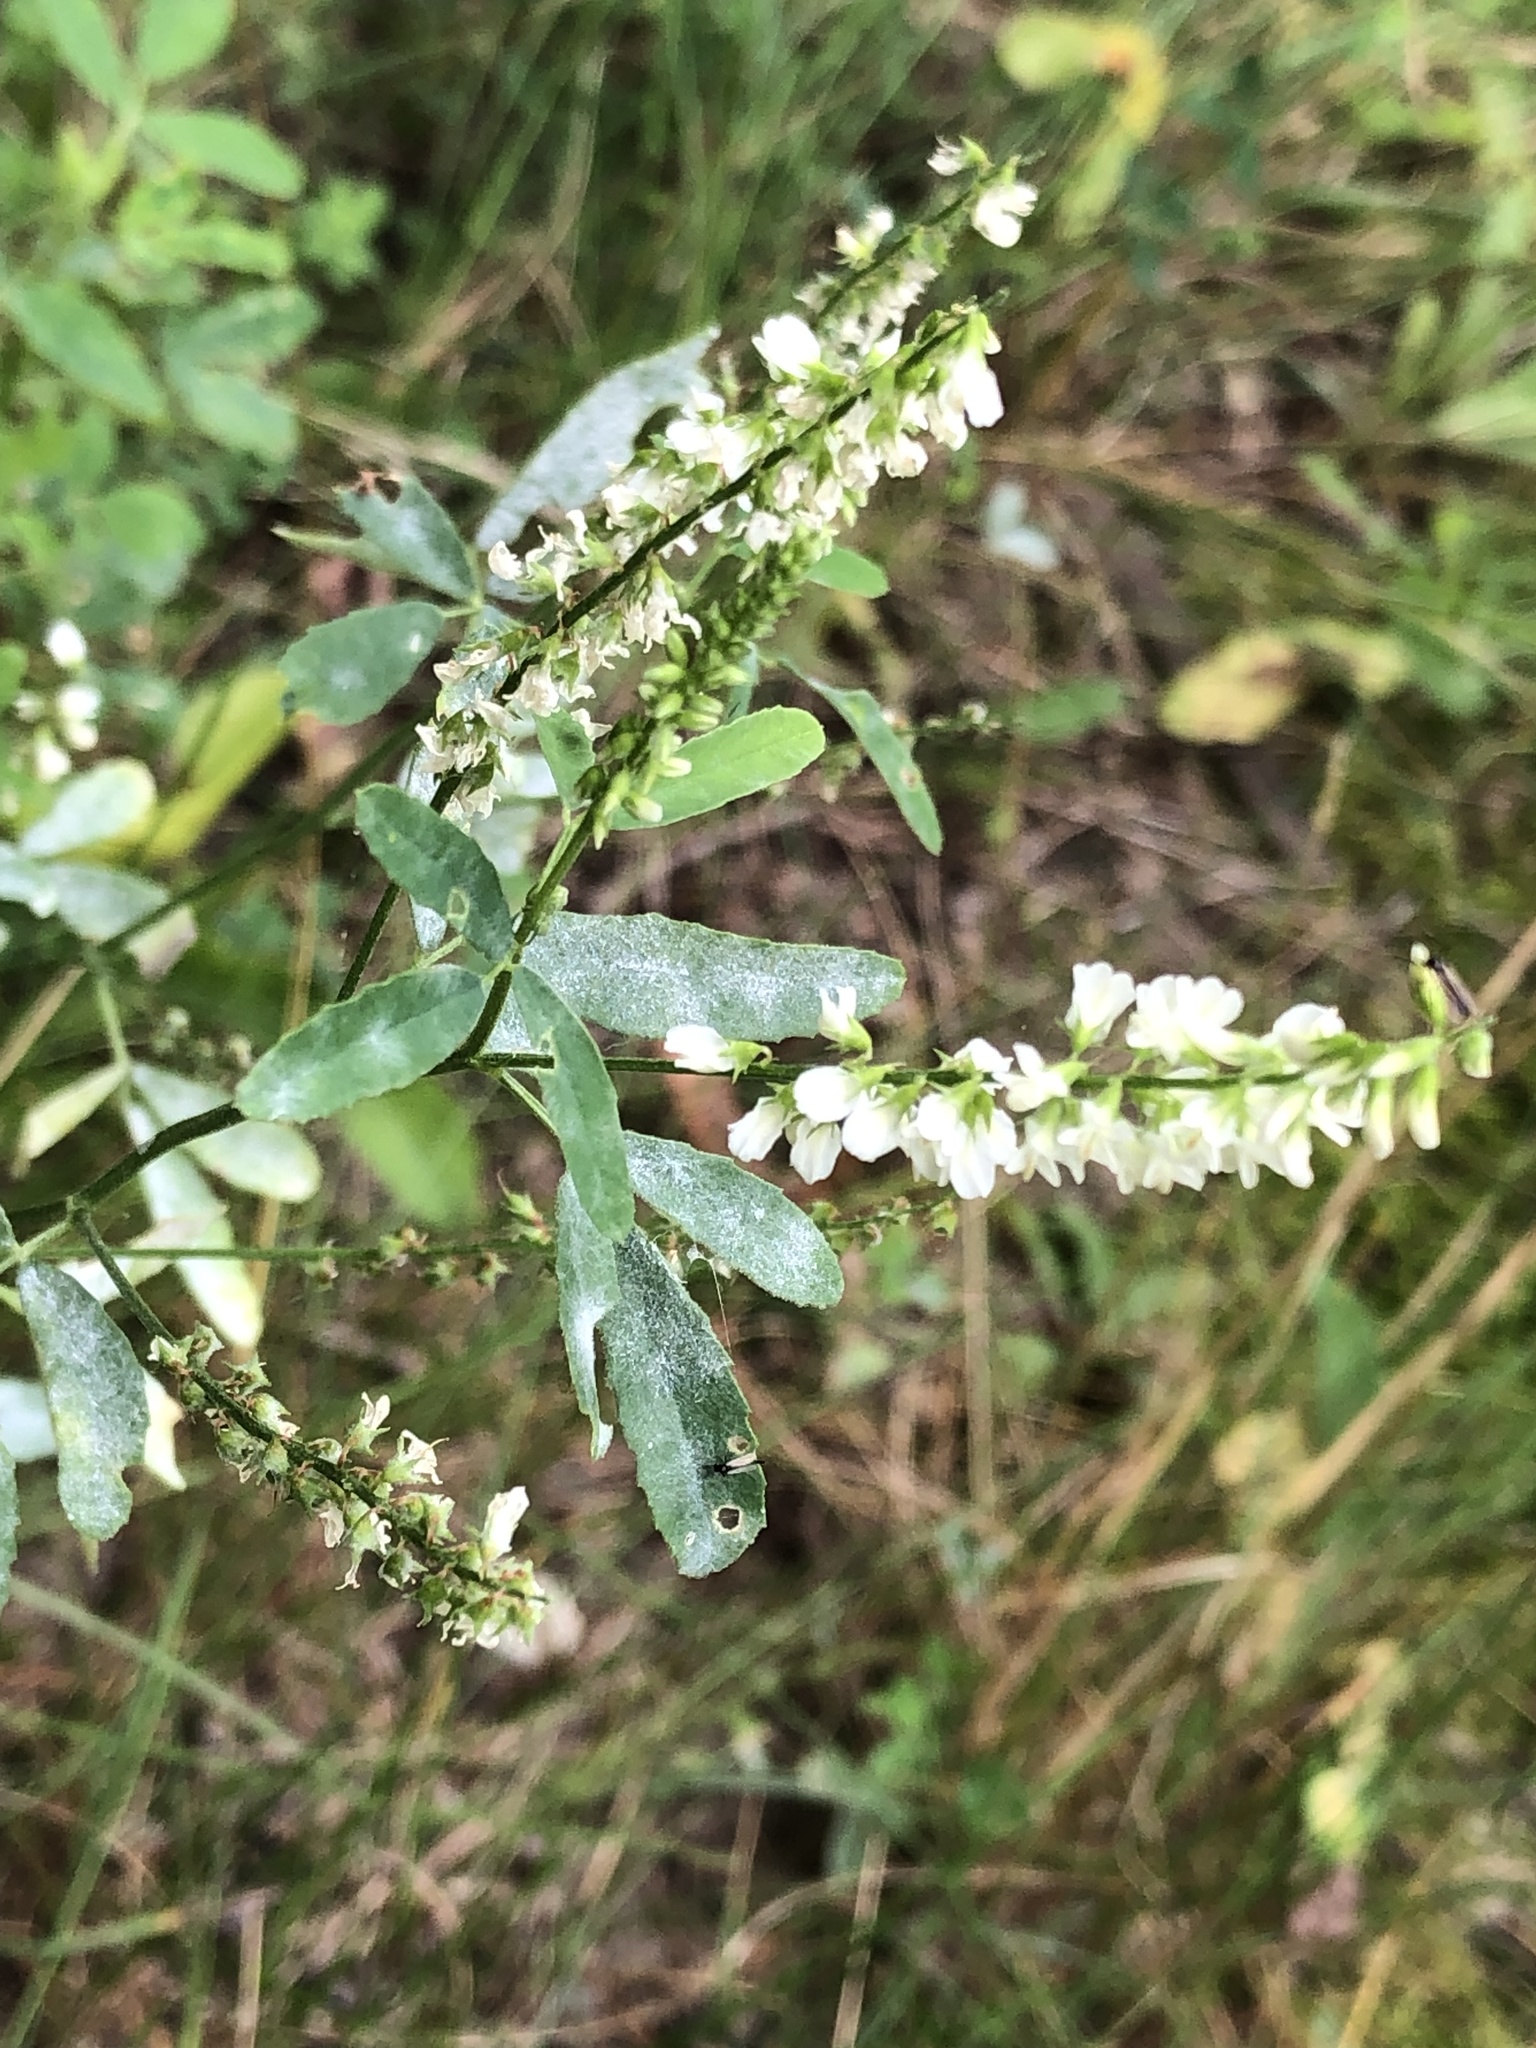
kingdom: Plantae
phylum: Tracheophyta
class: Magnoliopsida
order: Fabales
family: Fabaceae
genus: Melilotus
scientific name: Melilotus albus
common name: White melilot
